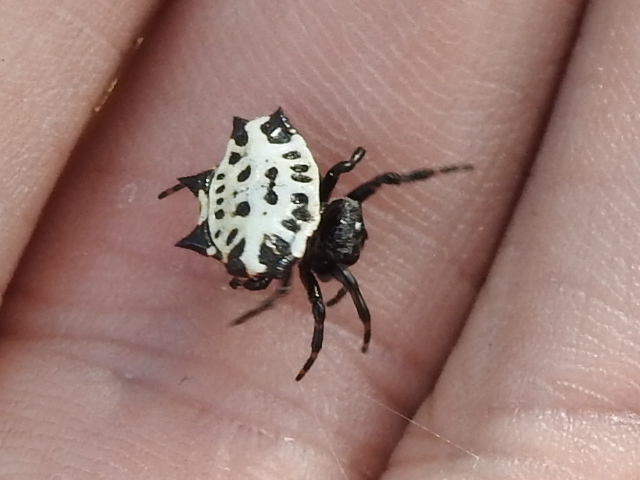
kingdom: Animalia
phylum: Arthropoda
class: Arachnida
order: Araneae
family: Araneidae
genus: Gasteracantha
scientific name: Gasteracantha cancriformis
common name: Orb weavers
